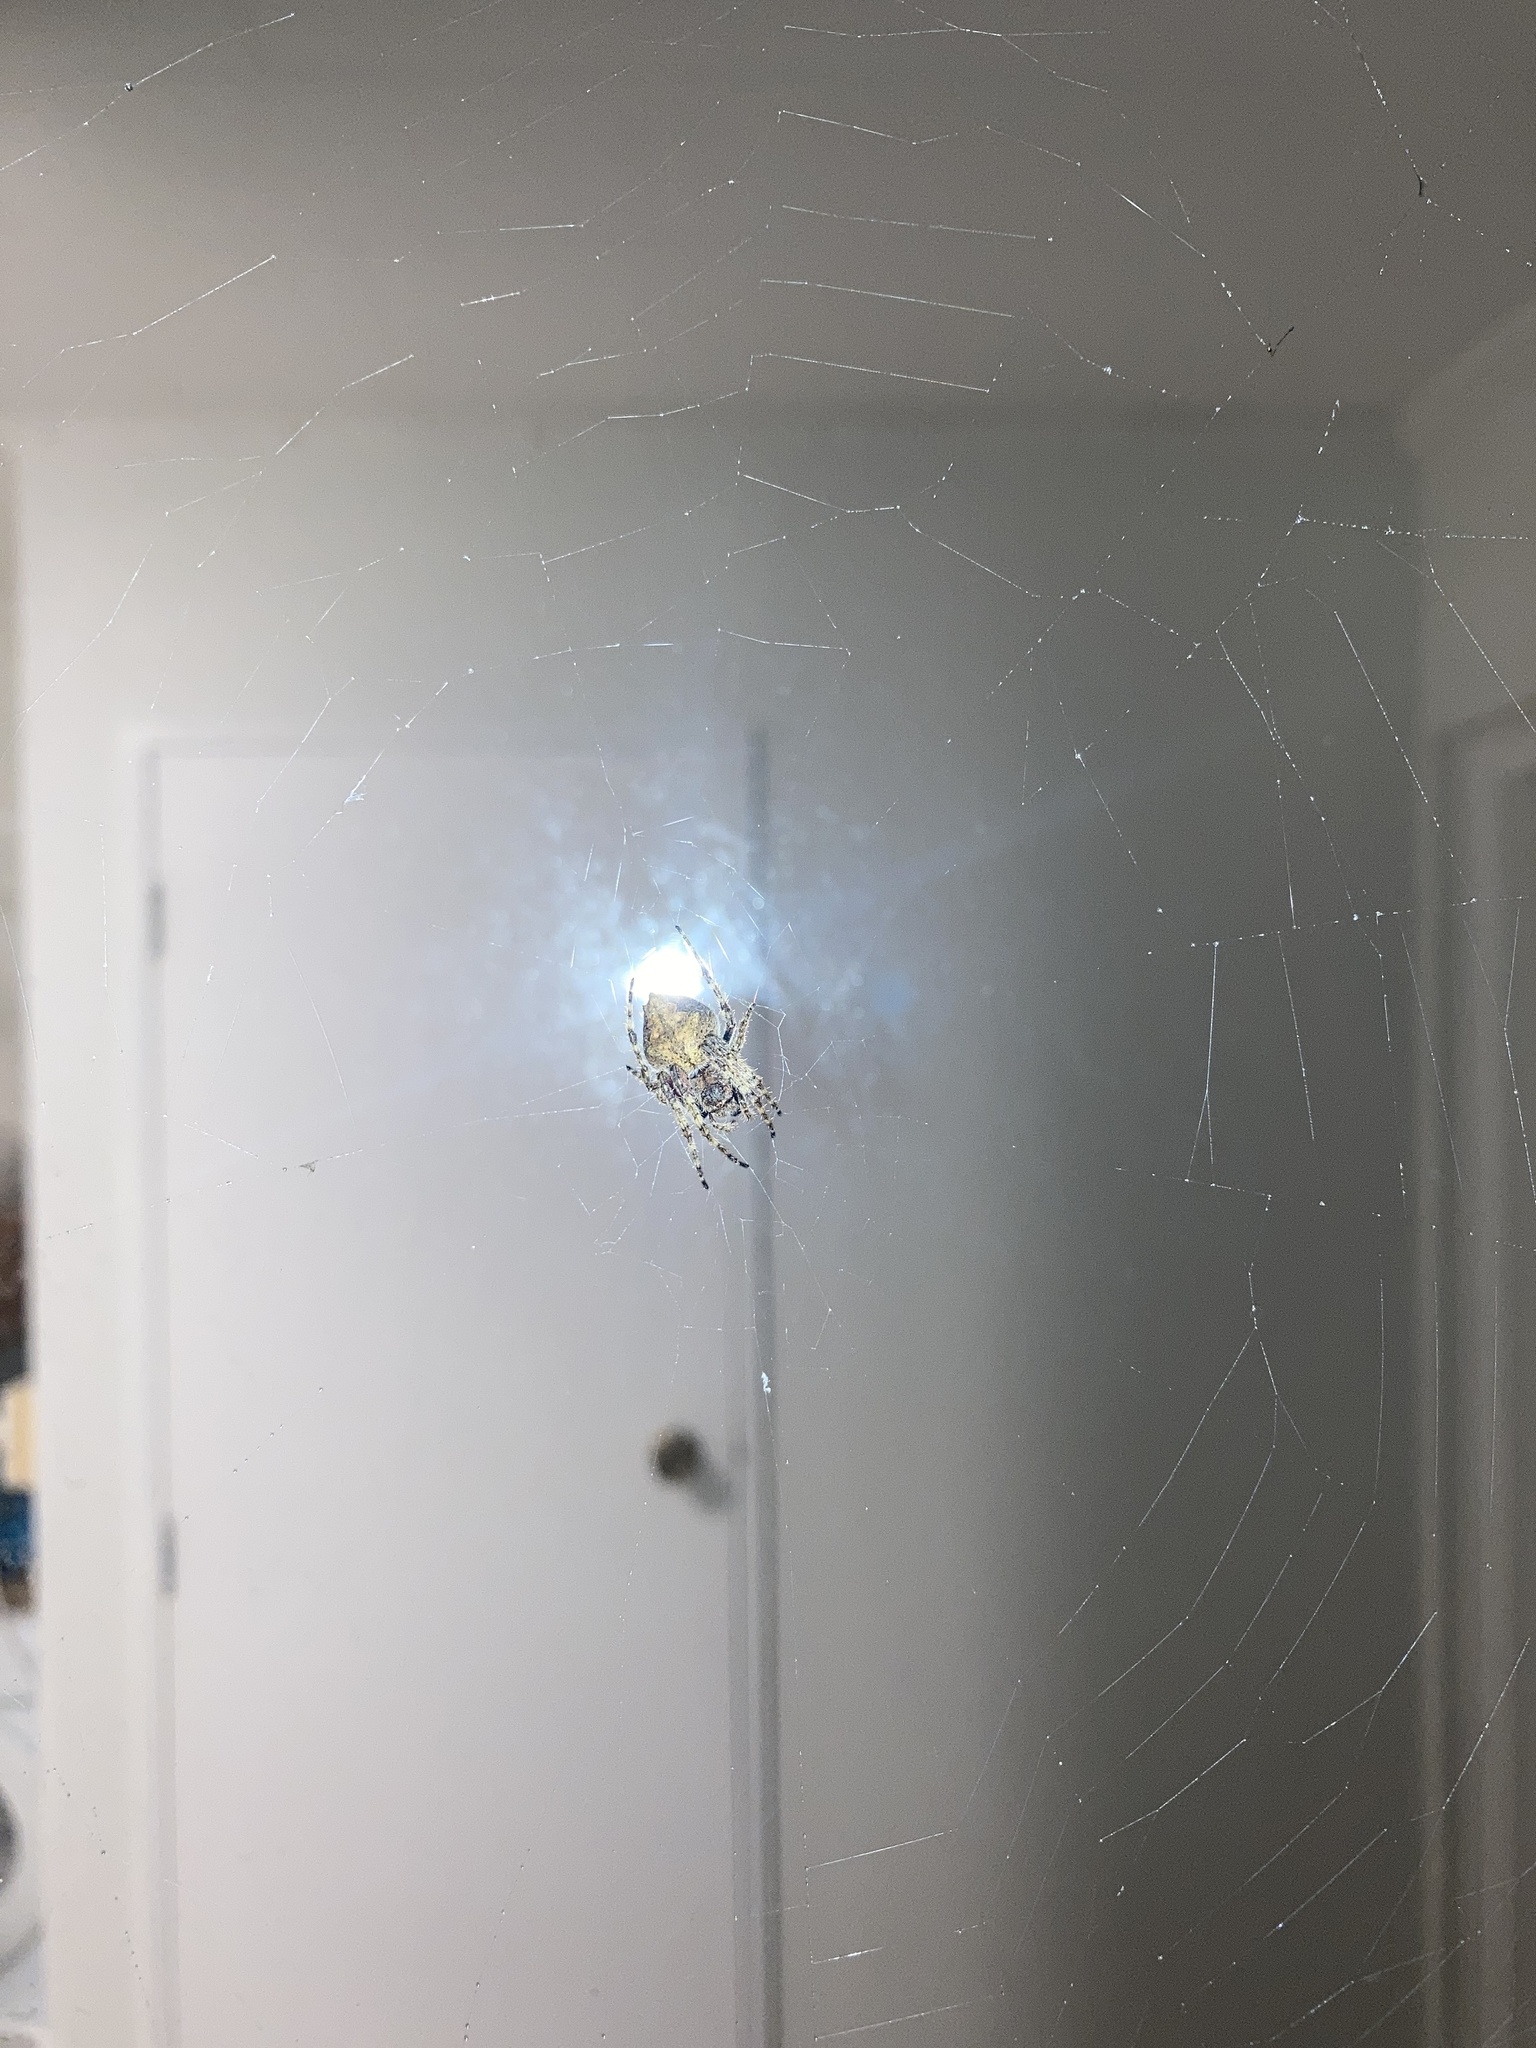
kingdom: Animalia
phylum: Arthropoda
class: Arachnida
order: Araneae
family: Araneidae
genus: Eriophora
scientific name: Eriophora pustulosa
